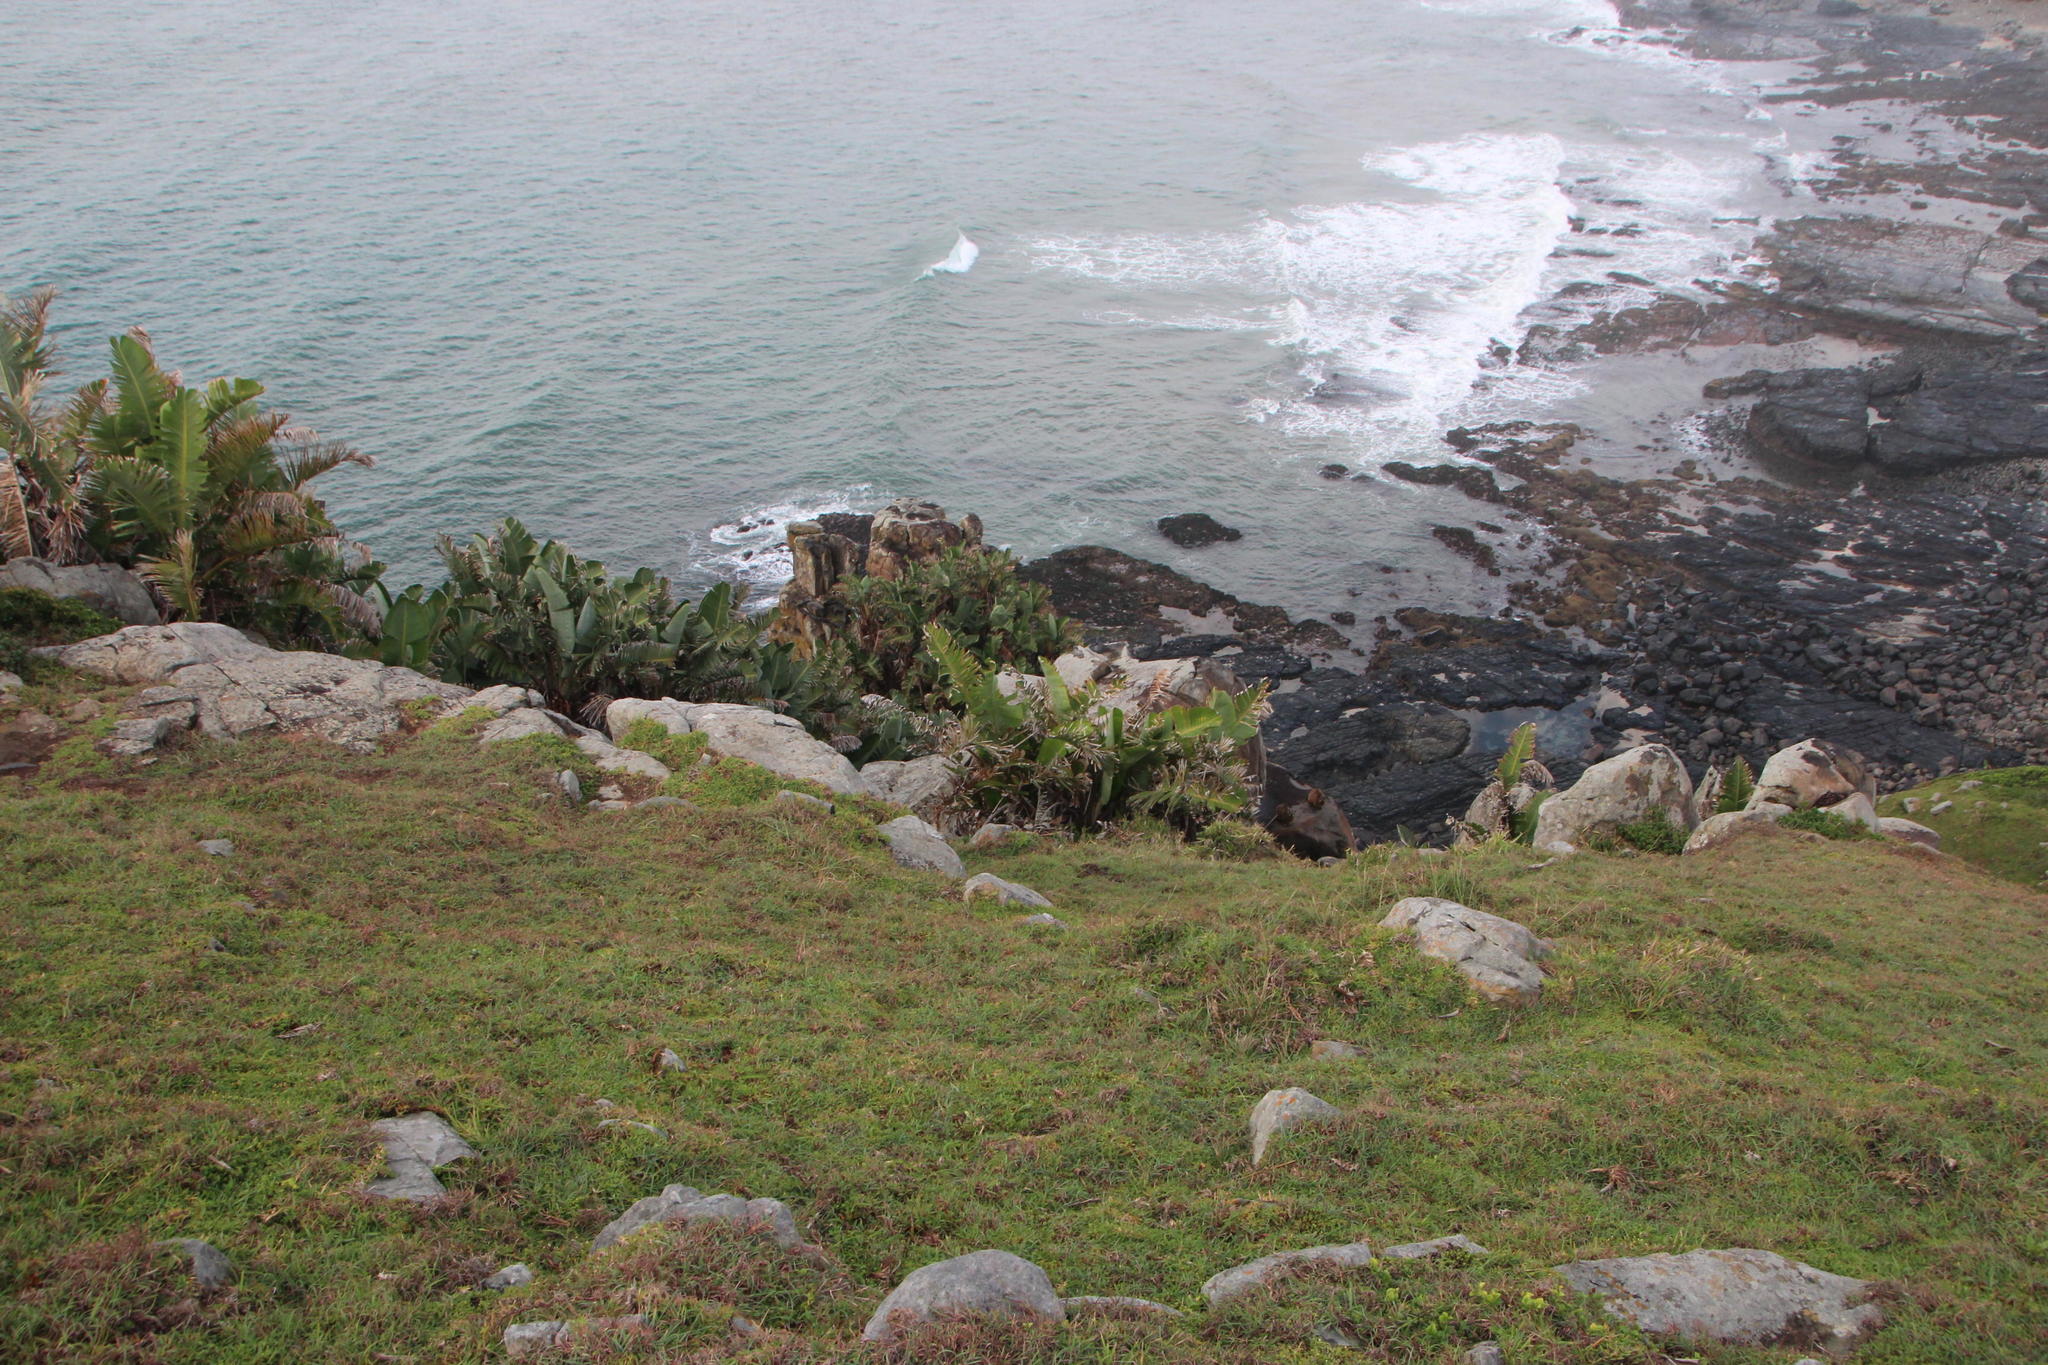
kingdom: Plantae
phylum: Tracheophyta
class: Liliopsida
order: Zingiberales
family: Strelitziaceae
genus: Strelitzia
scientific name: Strelitzia nicolai
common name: Bird-of-paradise tree
